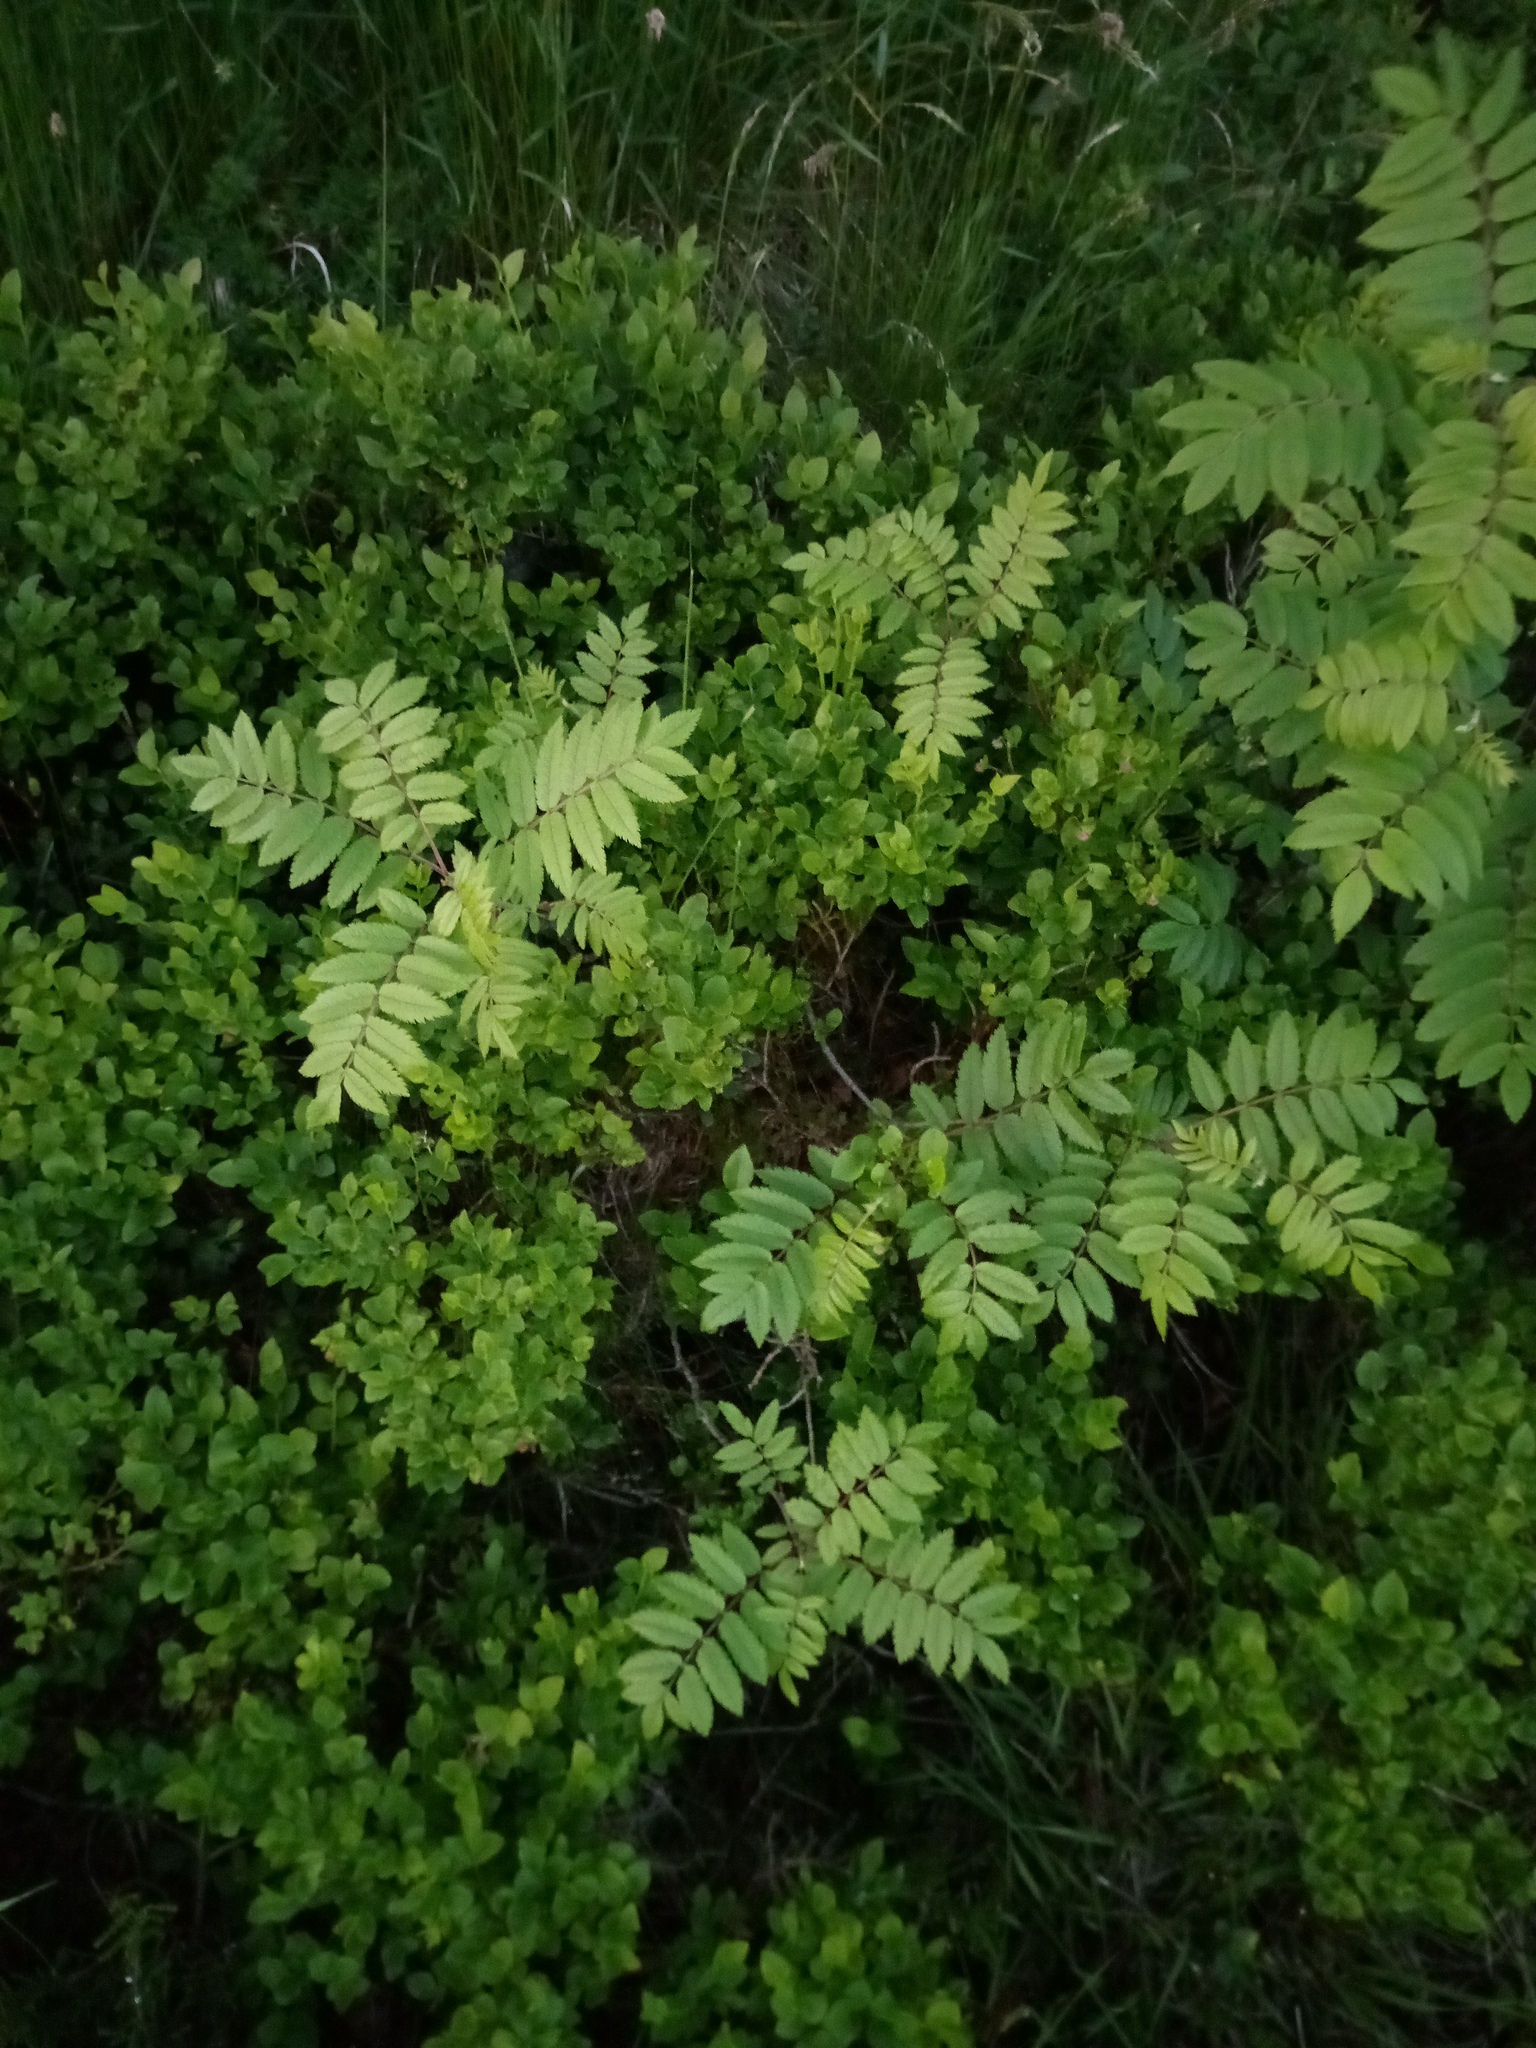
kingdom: Plantae
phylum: Tracheophyta
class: Magnoliopsida
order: Rosales
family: Rosaceae
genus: Sorbus
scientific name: Sorbus aucuparia
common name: Rowan
